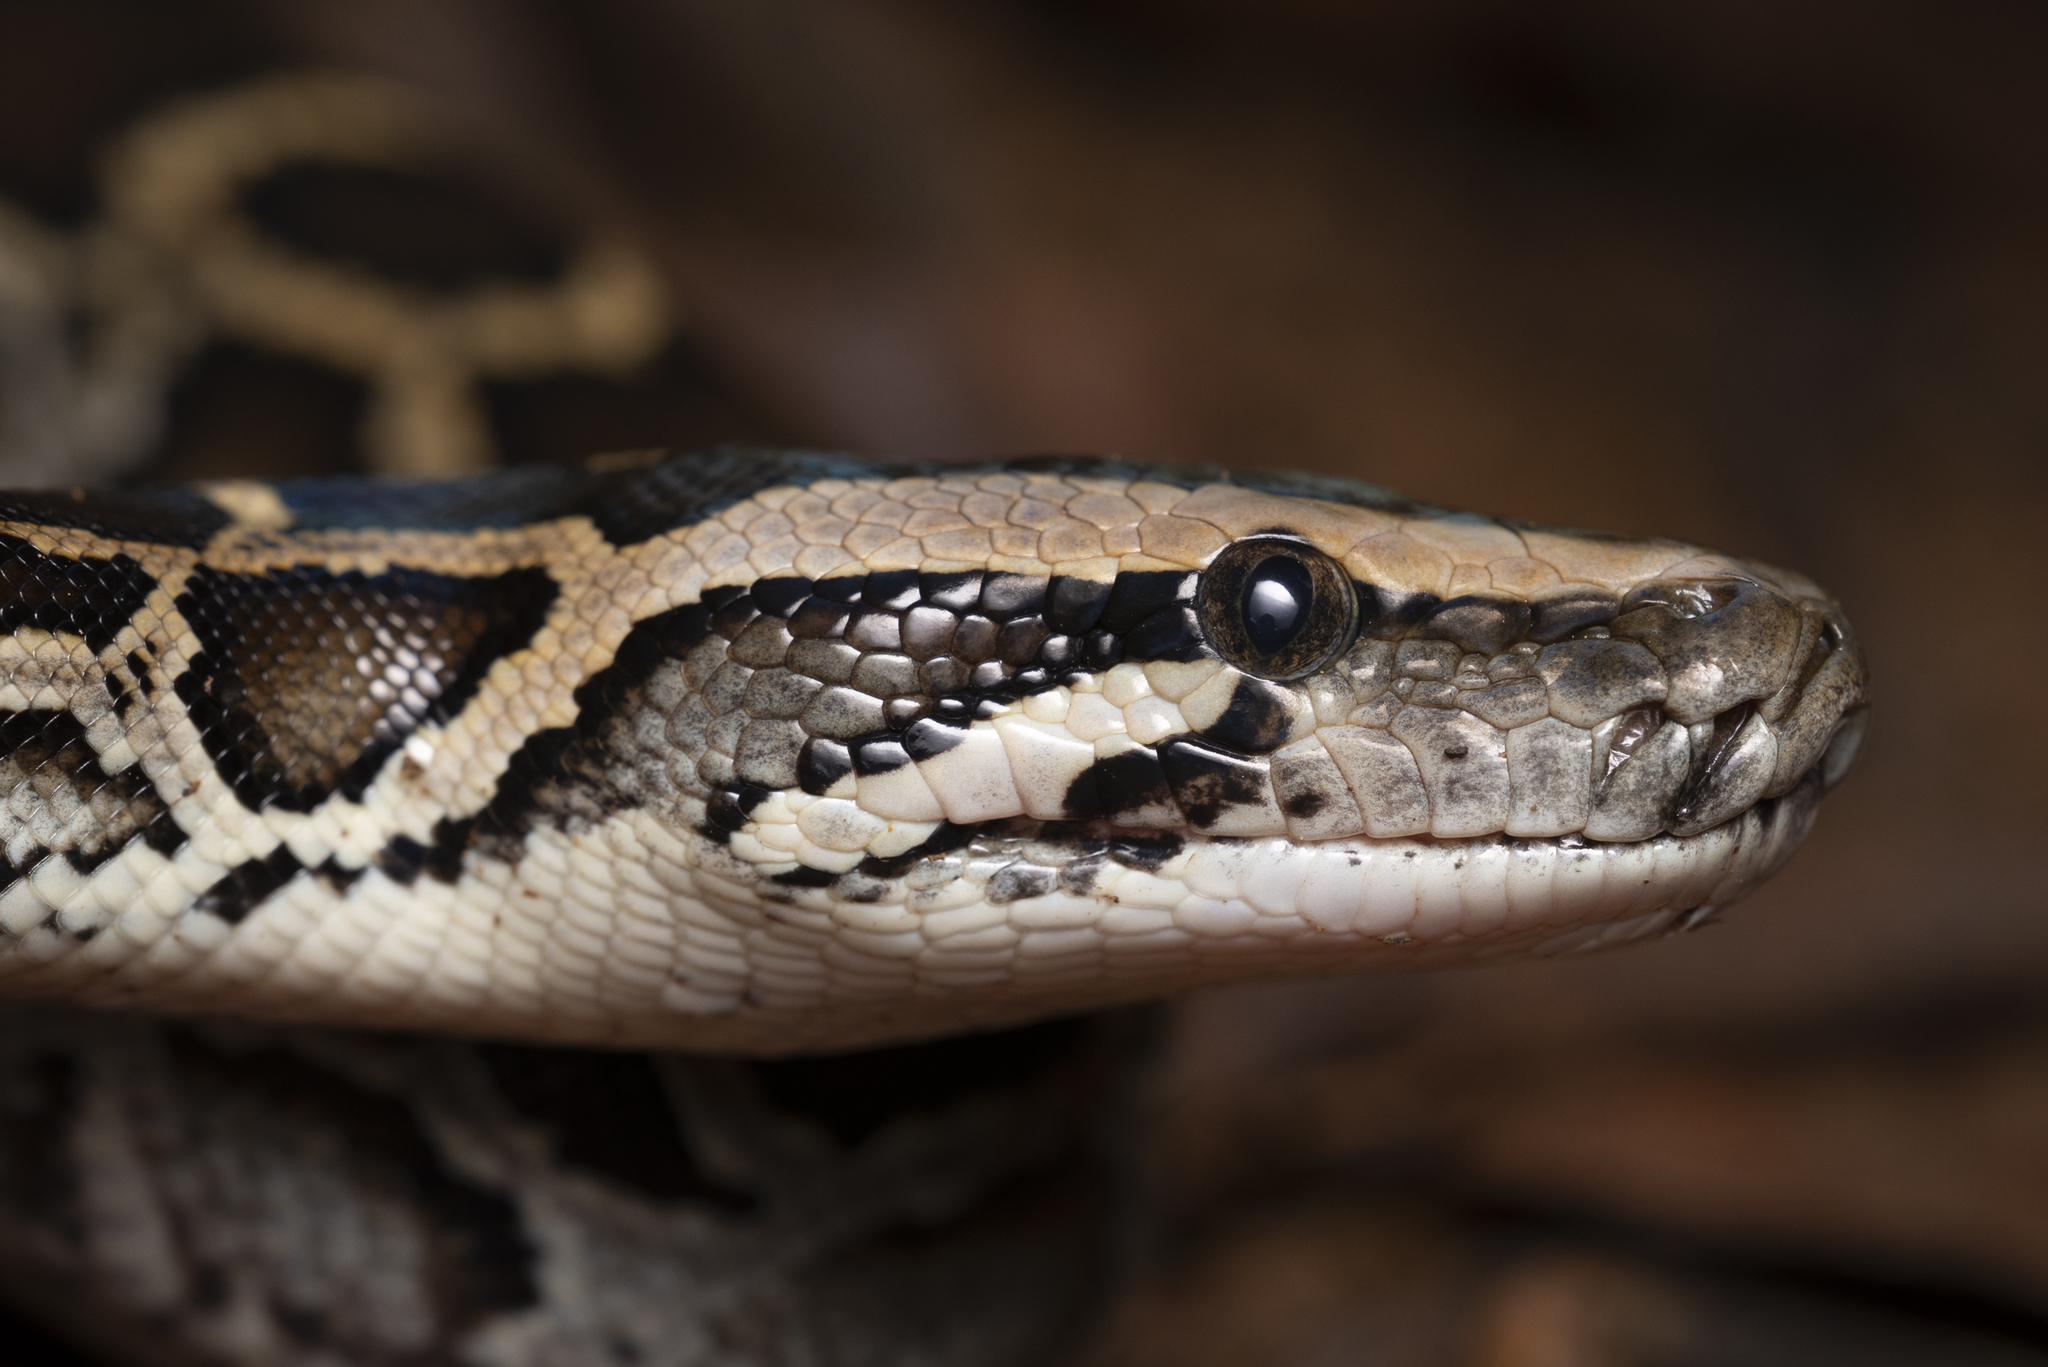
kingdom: Animalia
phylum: Chordata
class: Squamata
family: Pythonidae
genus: Python
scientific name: Python bivittatus
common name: Burmese python
